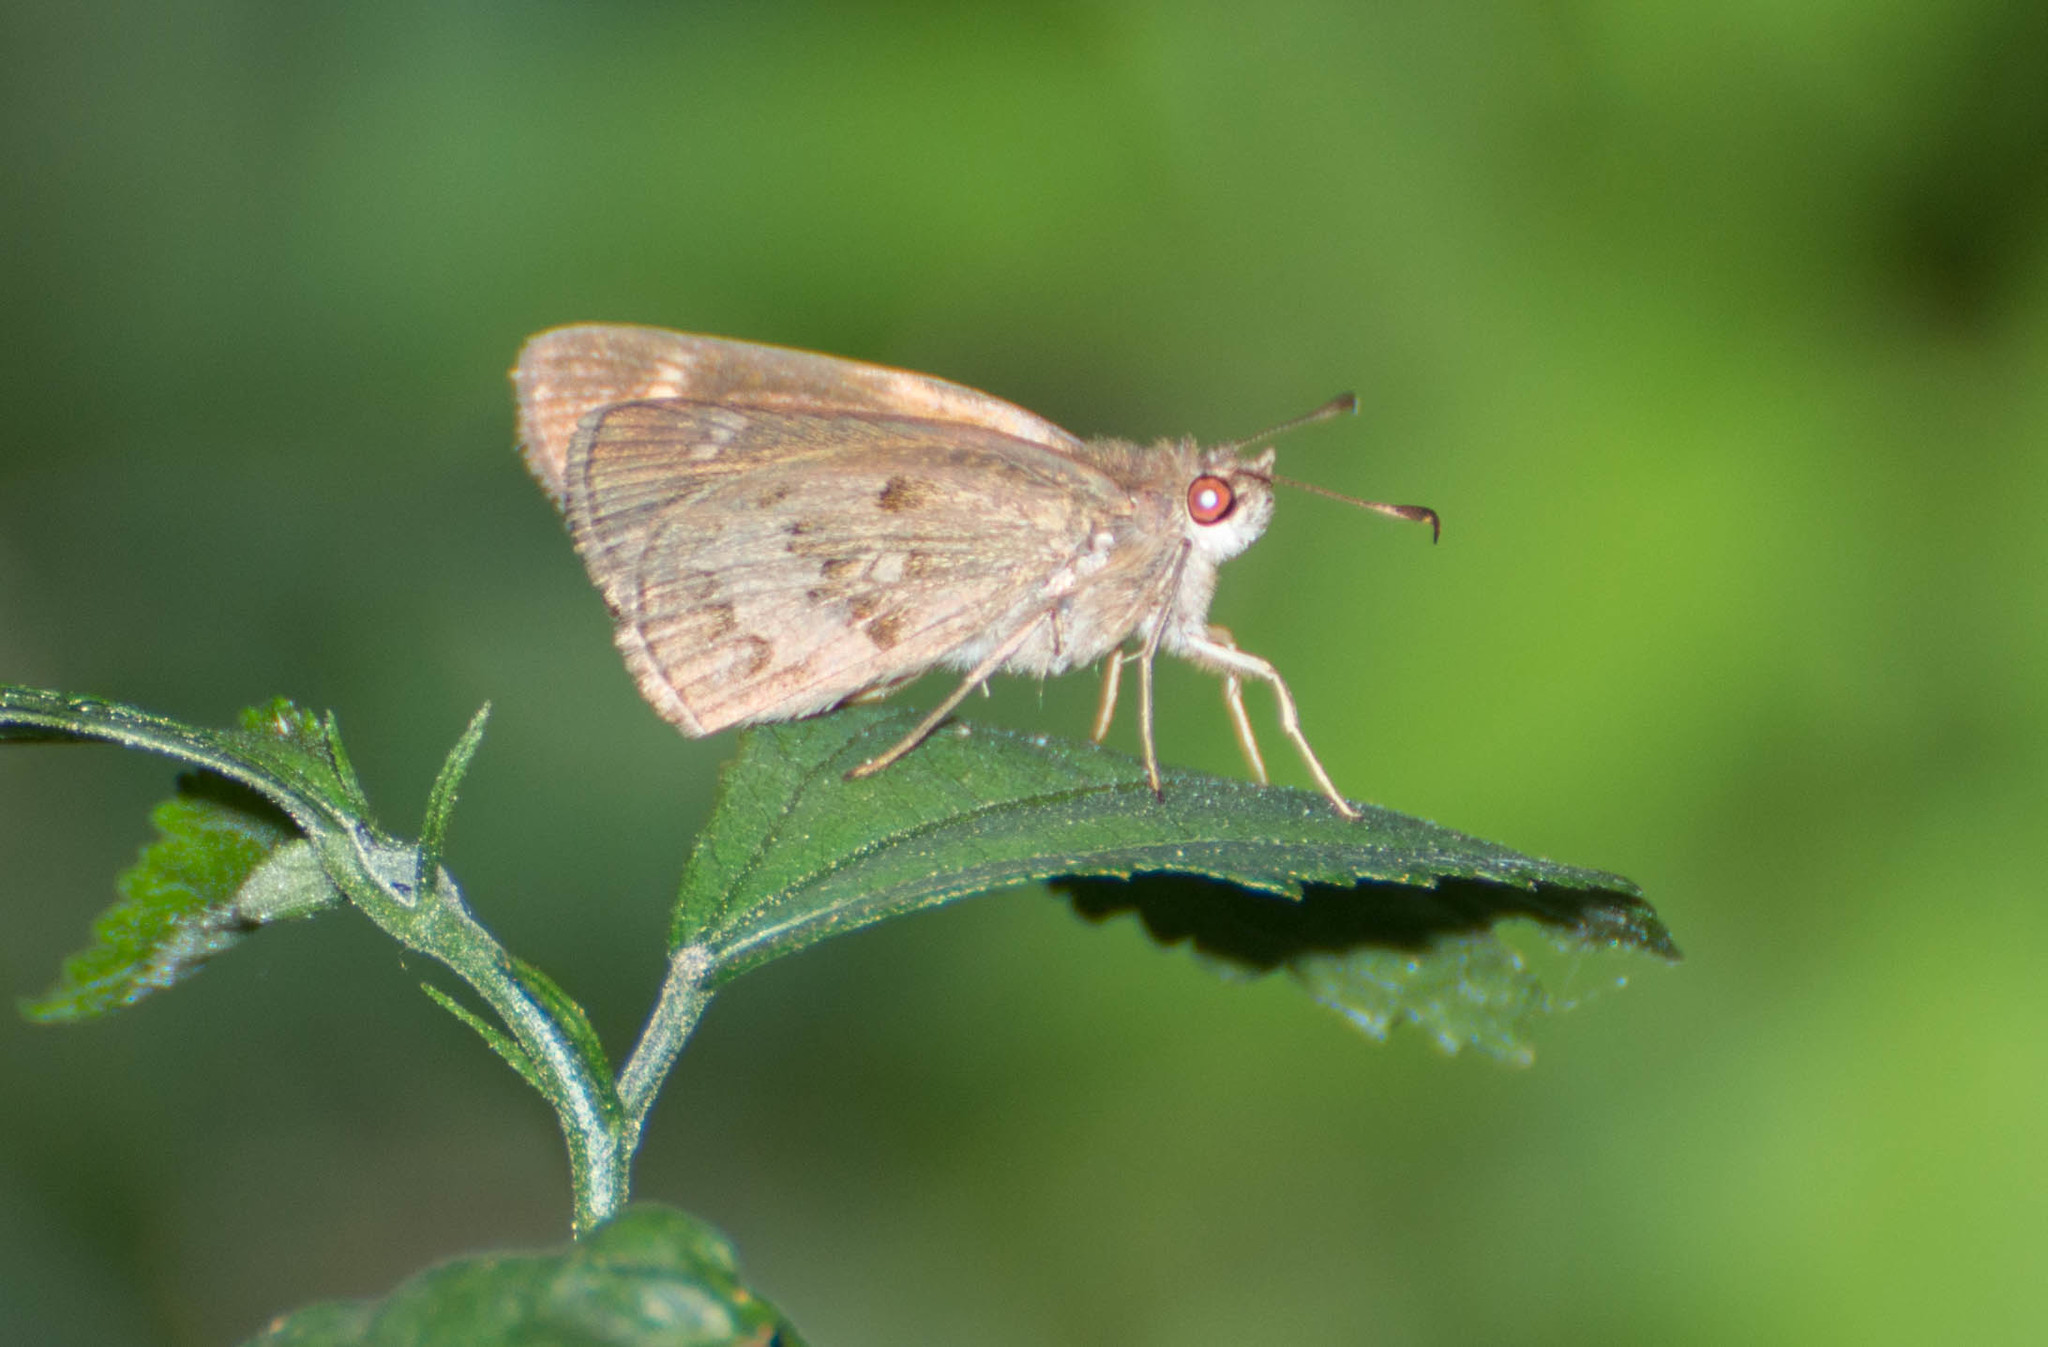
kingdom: Animalia
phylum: Arthropoda
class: Insecta
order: Lepidoptera
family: Hesperiidae
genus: Cymaenes
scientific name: Cymaenes gisca
